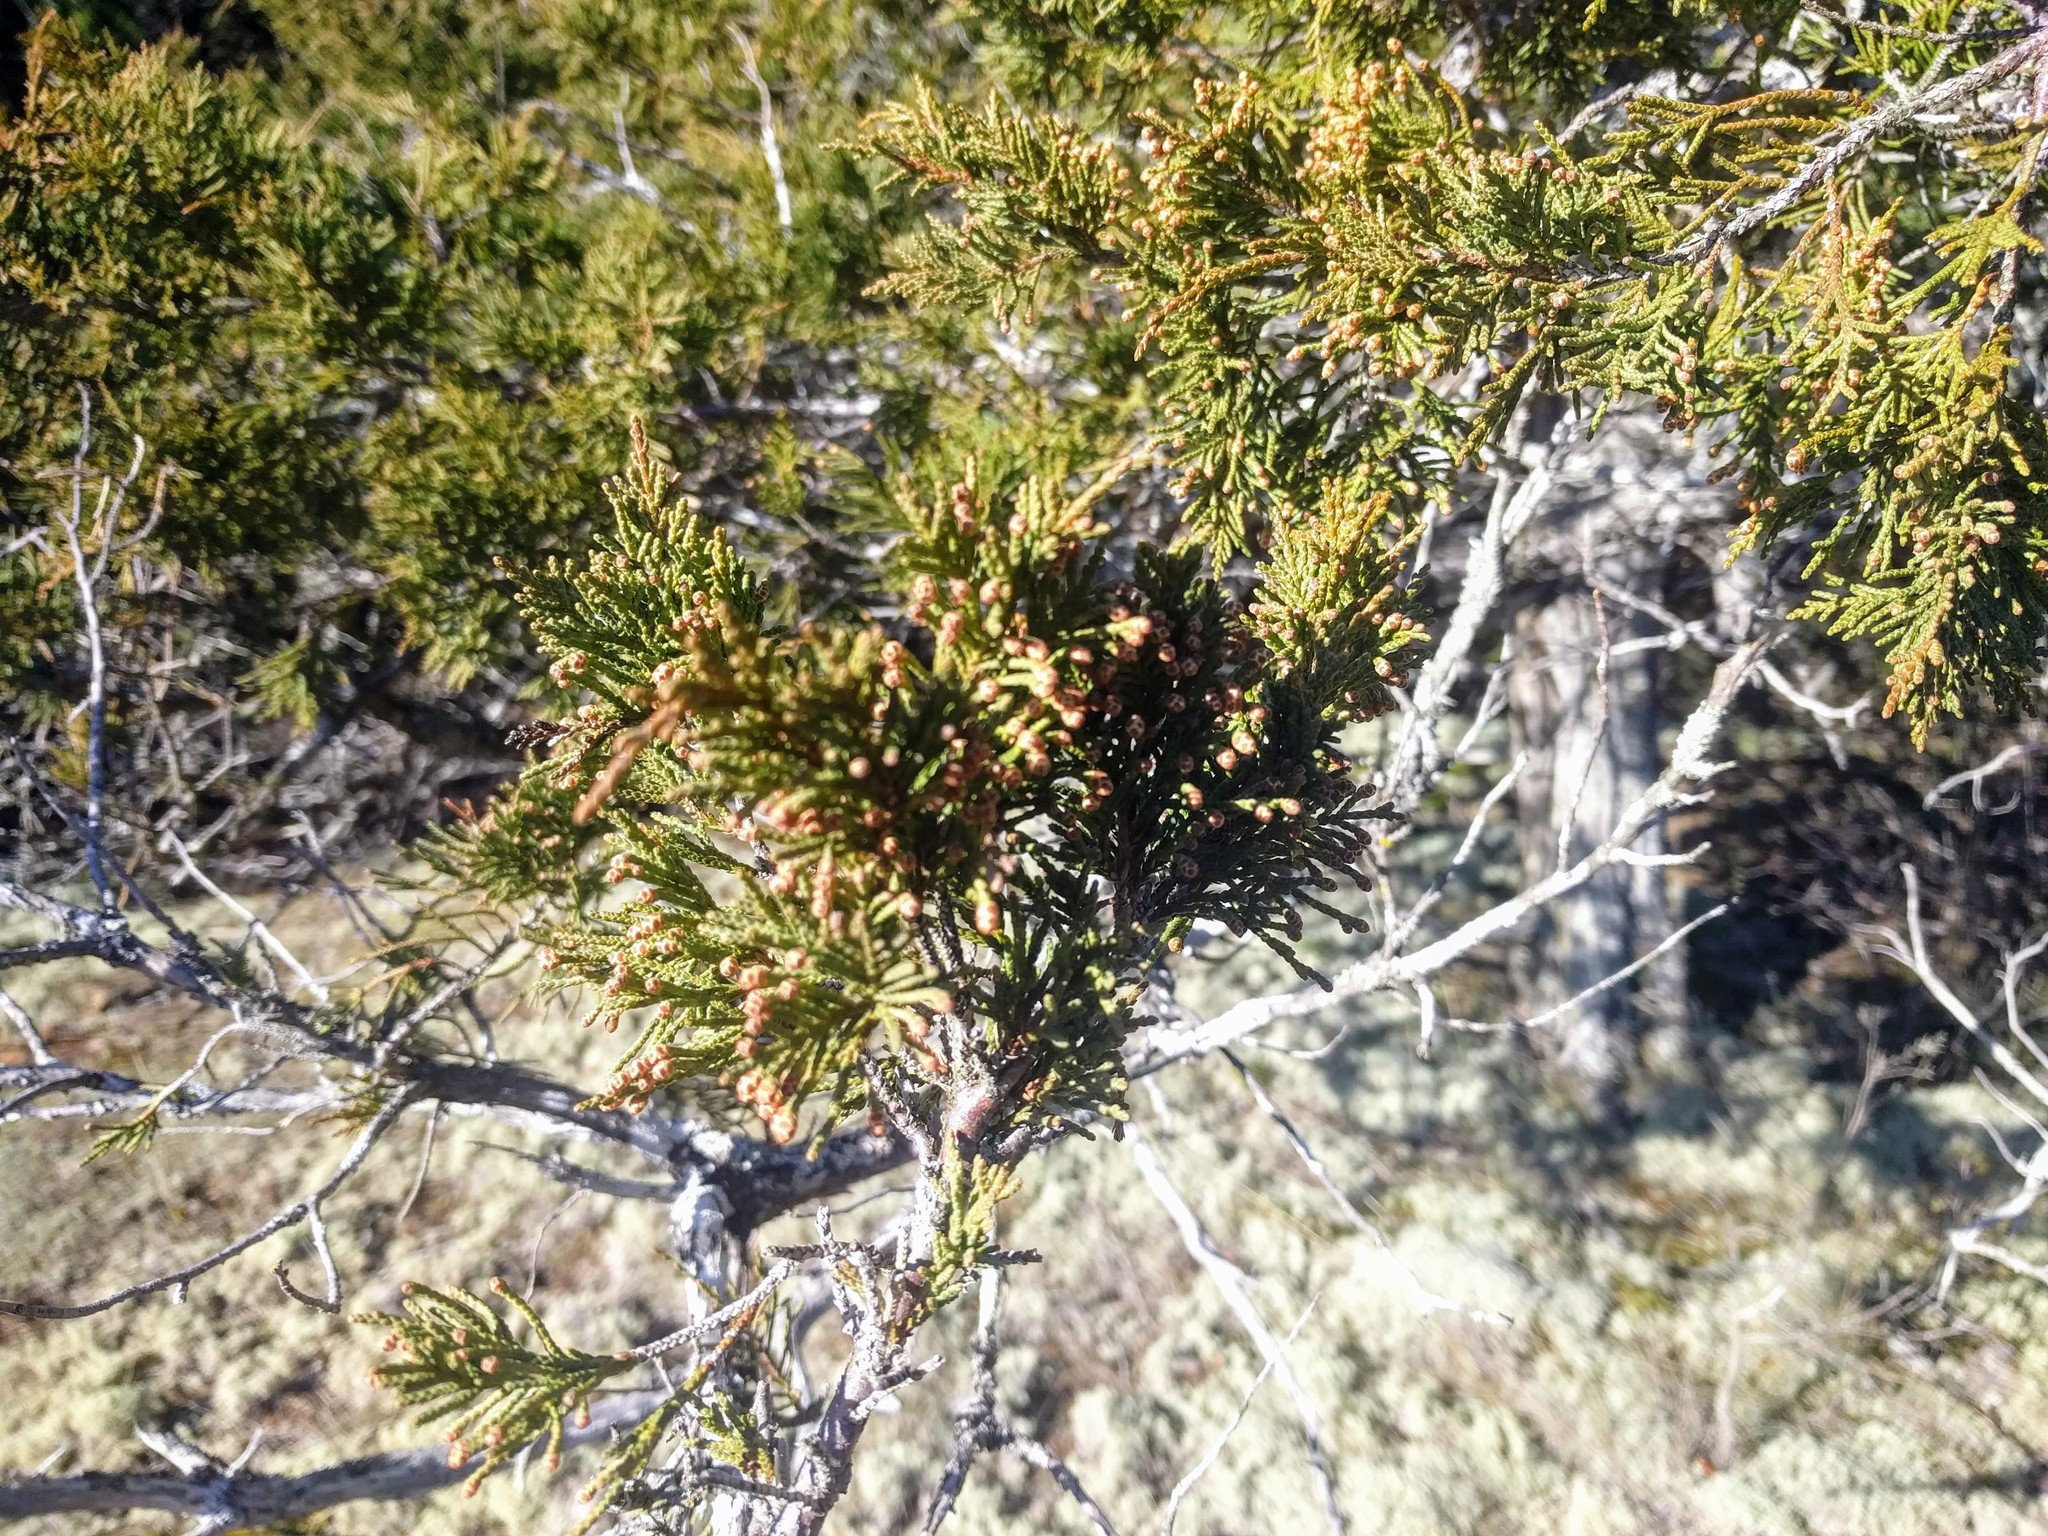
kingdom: Plantae
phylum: Tracheophyta
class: Pinopsida
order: Pinales
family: Cupressaceae
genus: Juniperus
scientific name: Juniperus scopulorum
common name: Rocky mountain juniper
